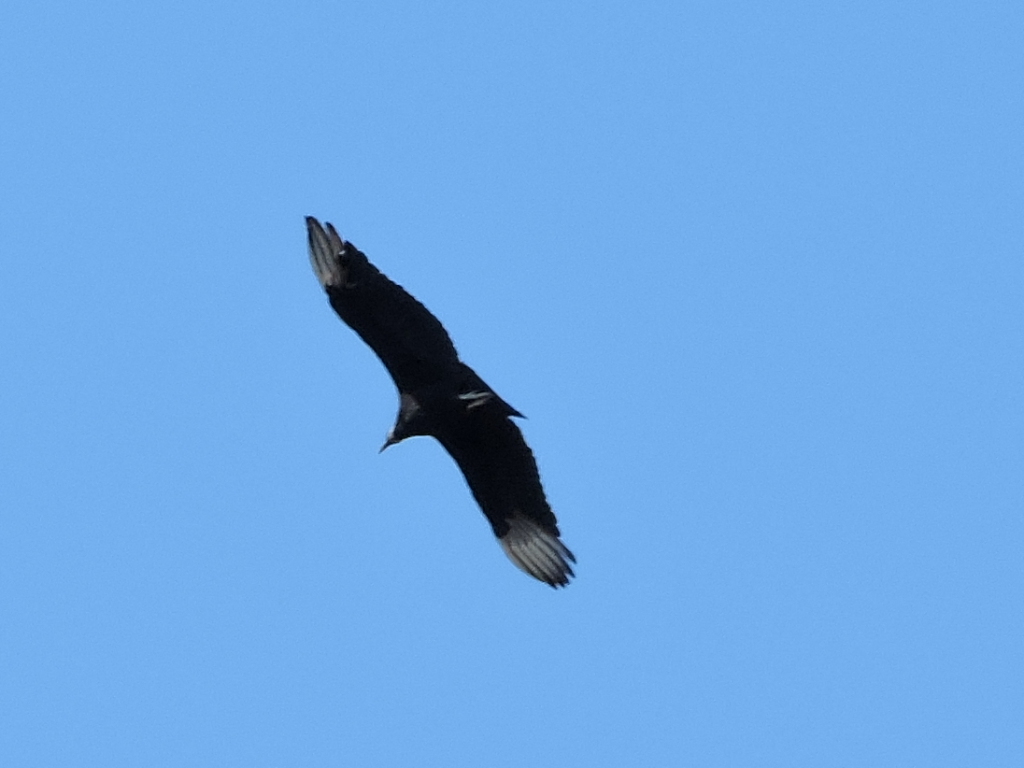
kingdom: Animalia
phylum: Chordata
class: Aves
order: Accipitriformes
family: Cathartidae
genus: Coragyps
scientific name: Coragyps atratus
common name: Black vulture
